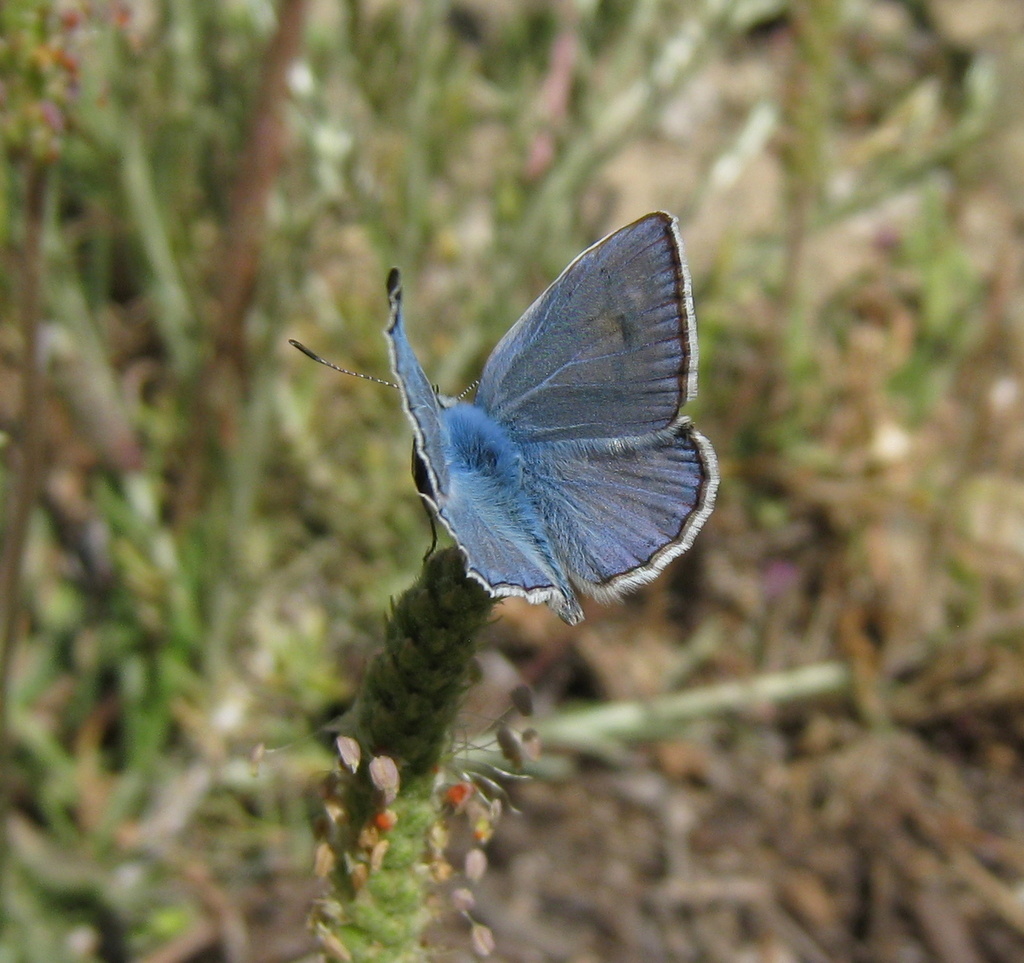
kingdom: Animalia
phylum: Arthropoda
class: Insecta
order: Lepidoptera
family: Lycaenidae
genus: Polyommatus
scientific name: Polyommatus icarus
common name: Common blue
